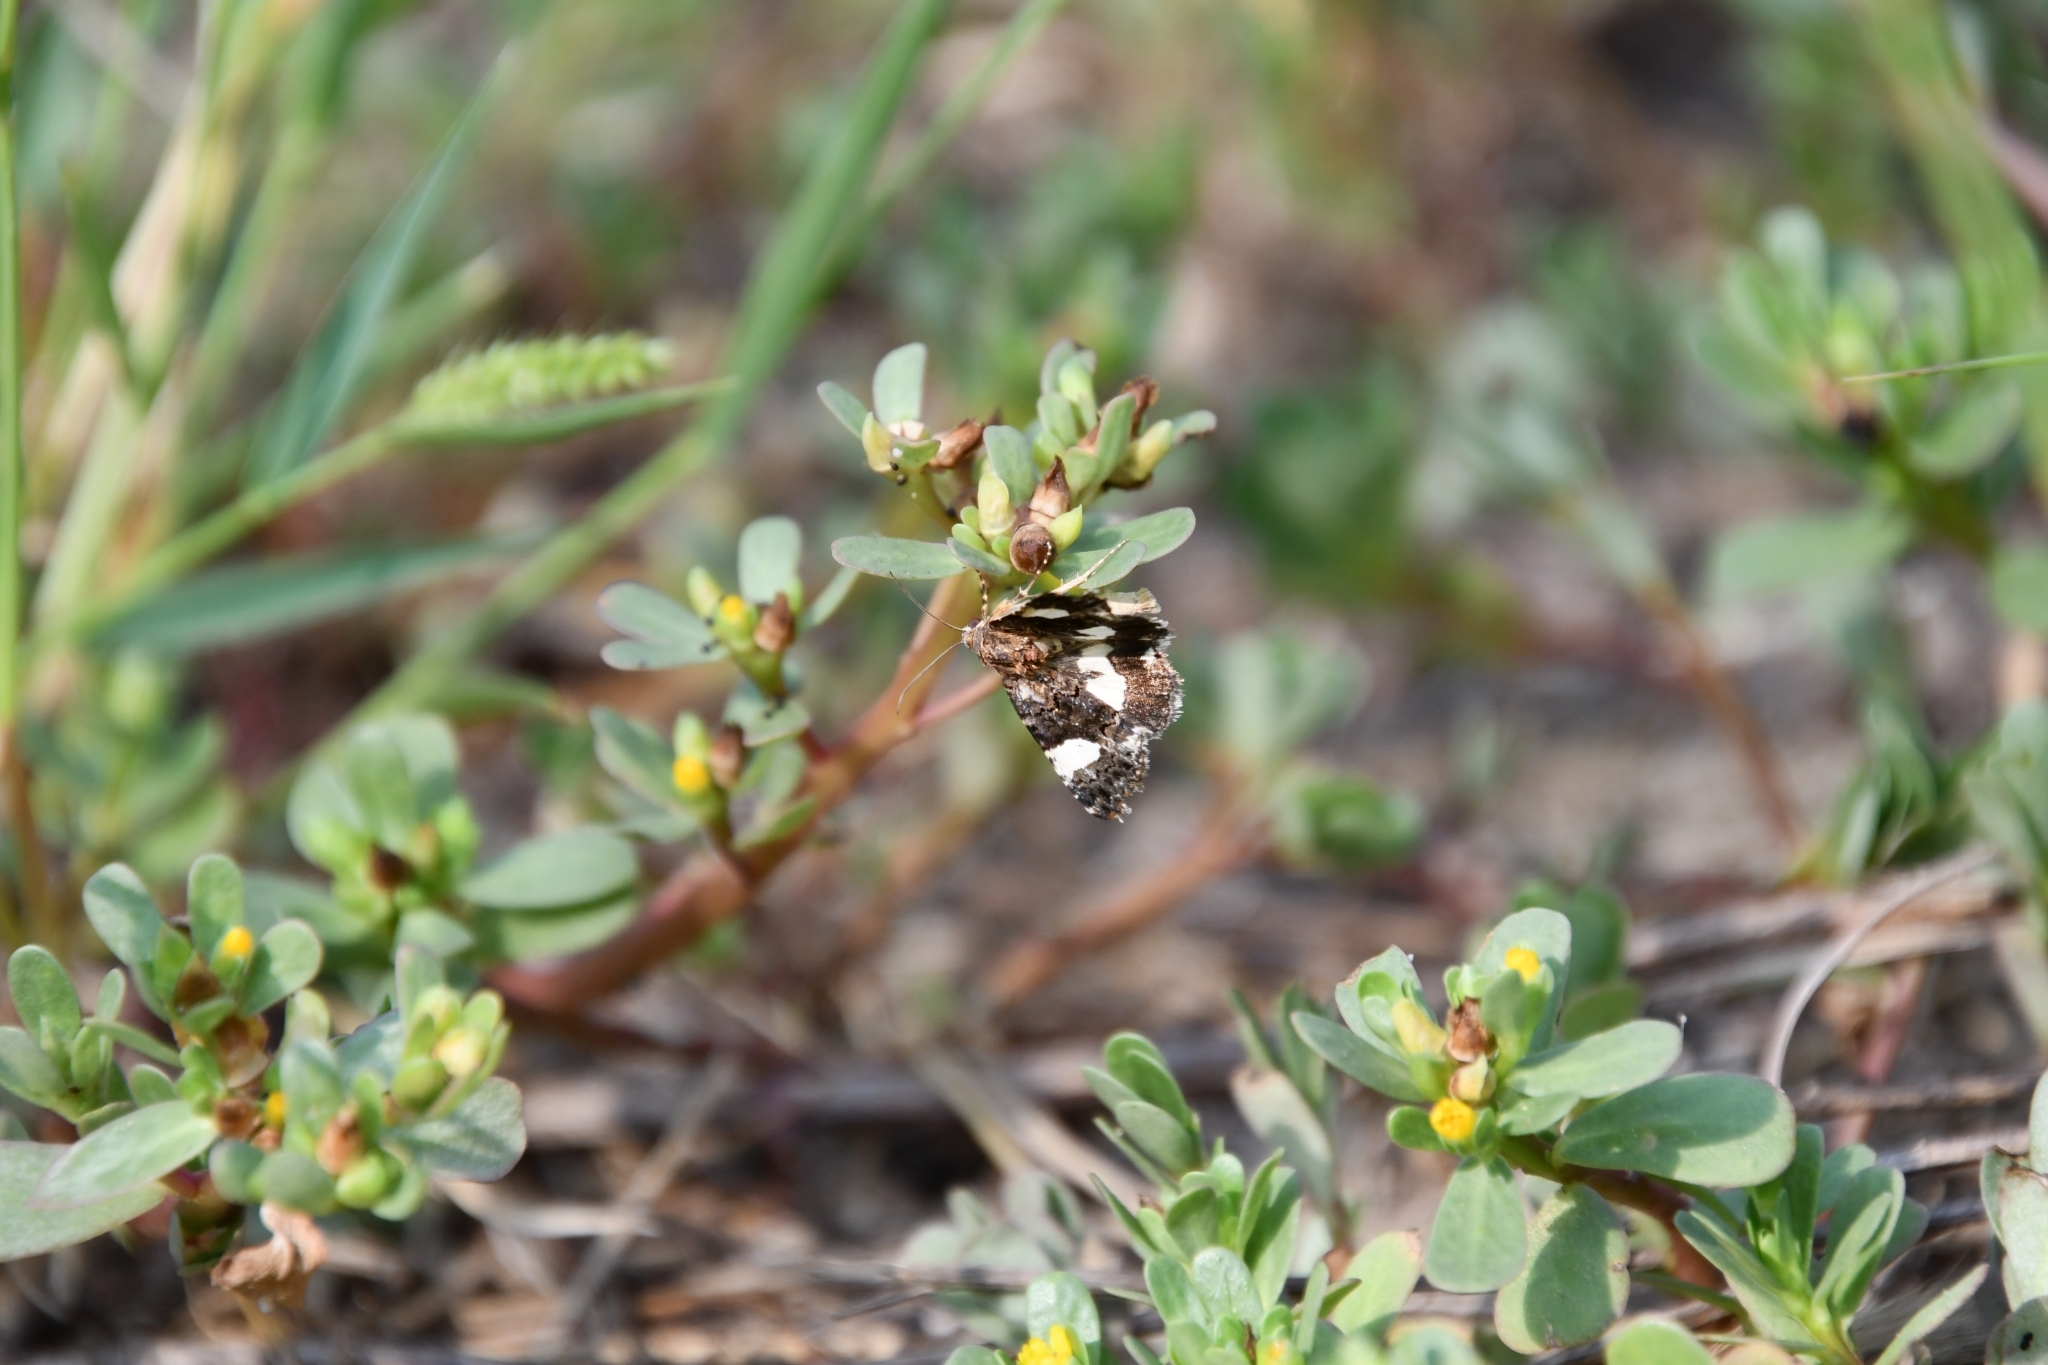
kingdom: Animalia
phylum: Arthropoda
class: Insecta
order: Lepidoptera
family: Erebidae
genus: Tyta
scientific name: Tyta luctuosa
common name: Four-spotted
